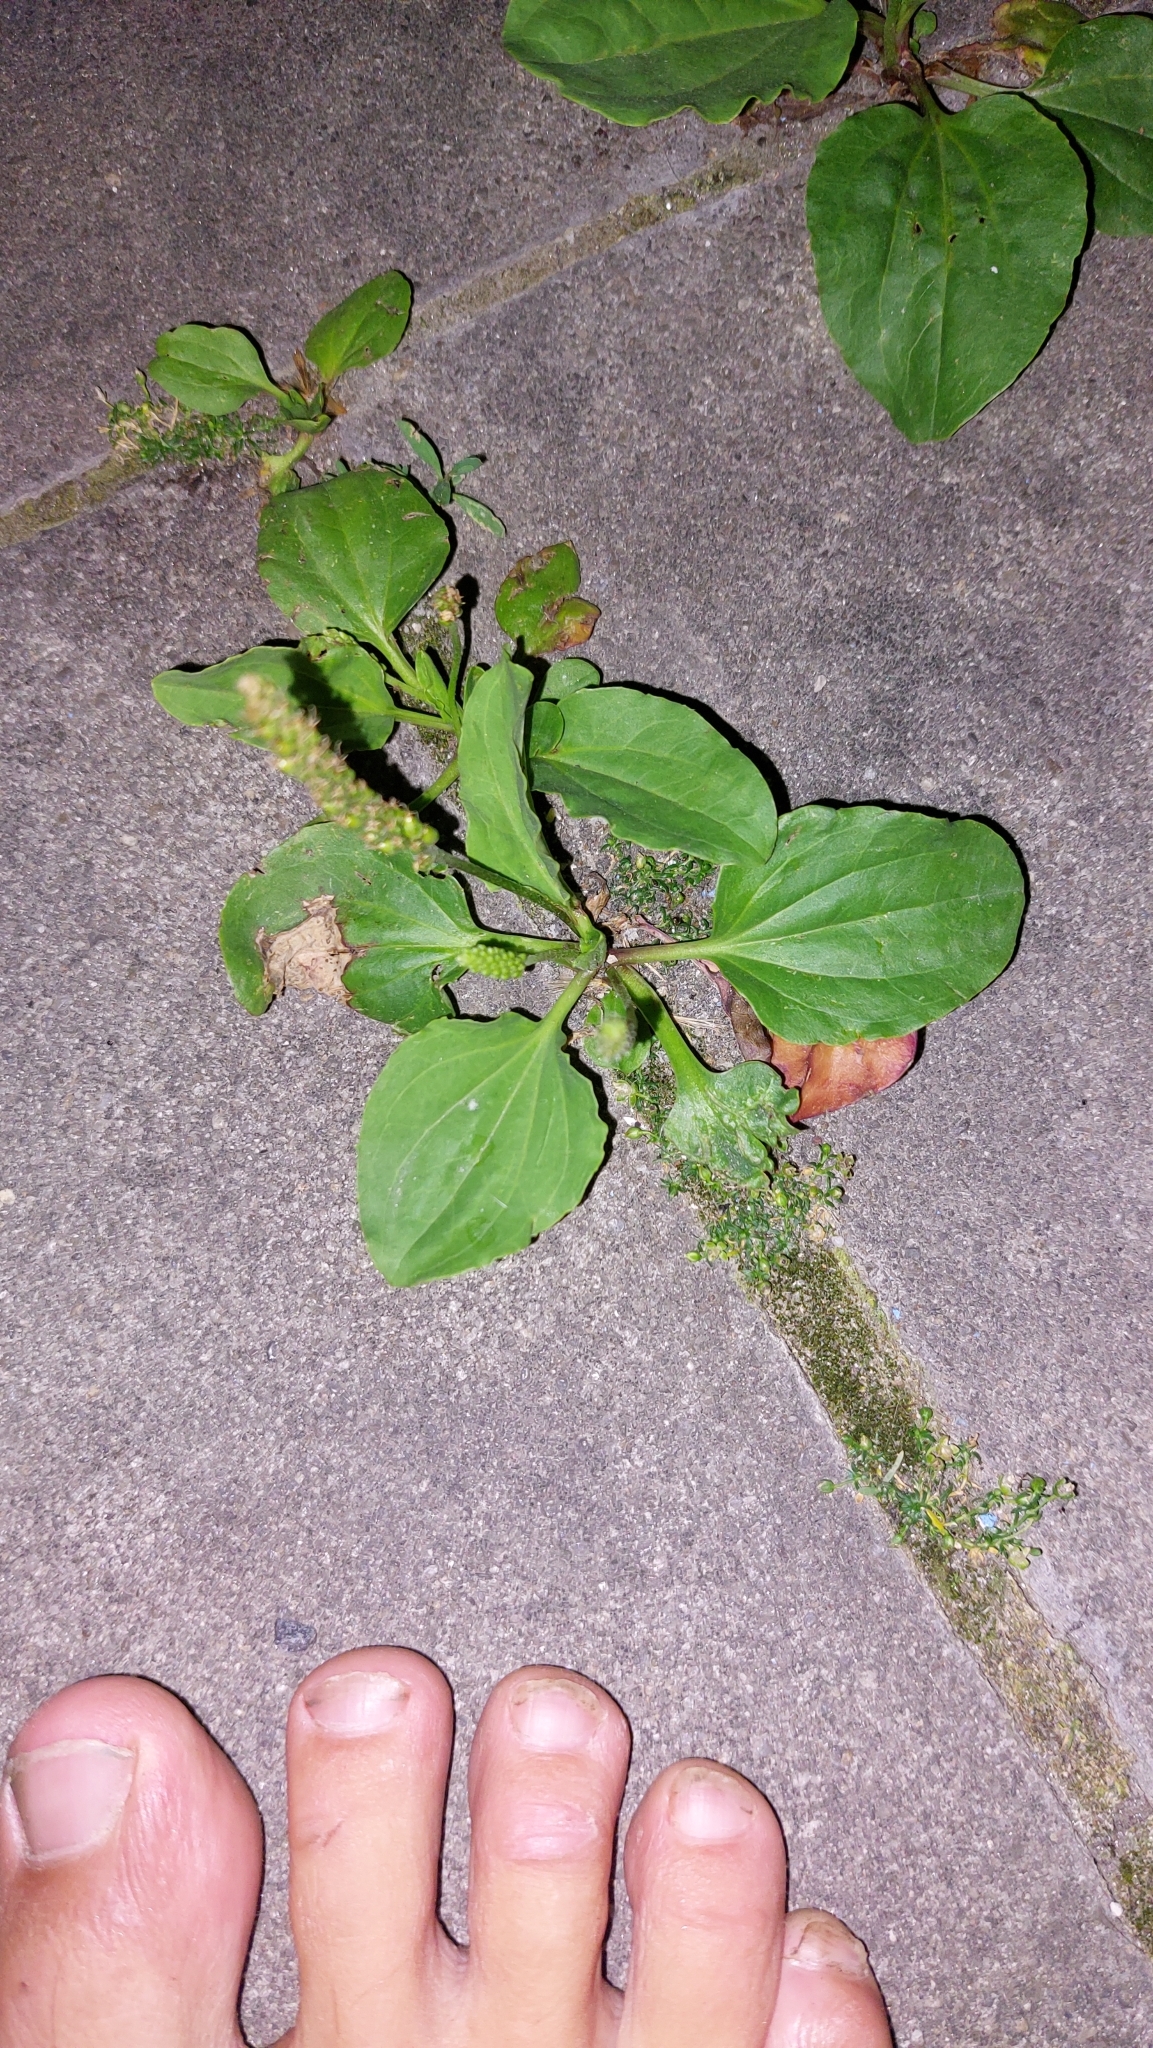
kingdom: Plantae
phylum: Tracheophyta
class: Magnoliopsida
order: Lamiales
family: Plantaginaceae
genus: Plantago
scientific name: Plantago major
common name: Common plantain
